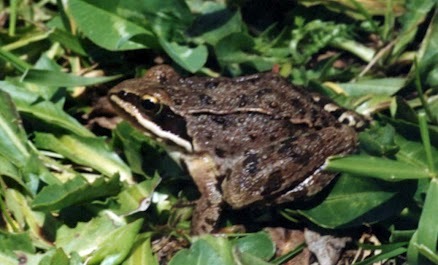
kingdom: Animalia
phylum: Chordata
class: Amphibia
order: Anura
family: Ranidae
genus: Rana
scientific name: Rana macrocnemis
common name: Banded frog
